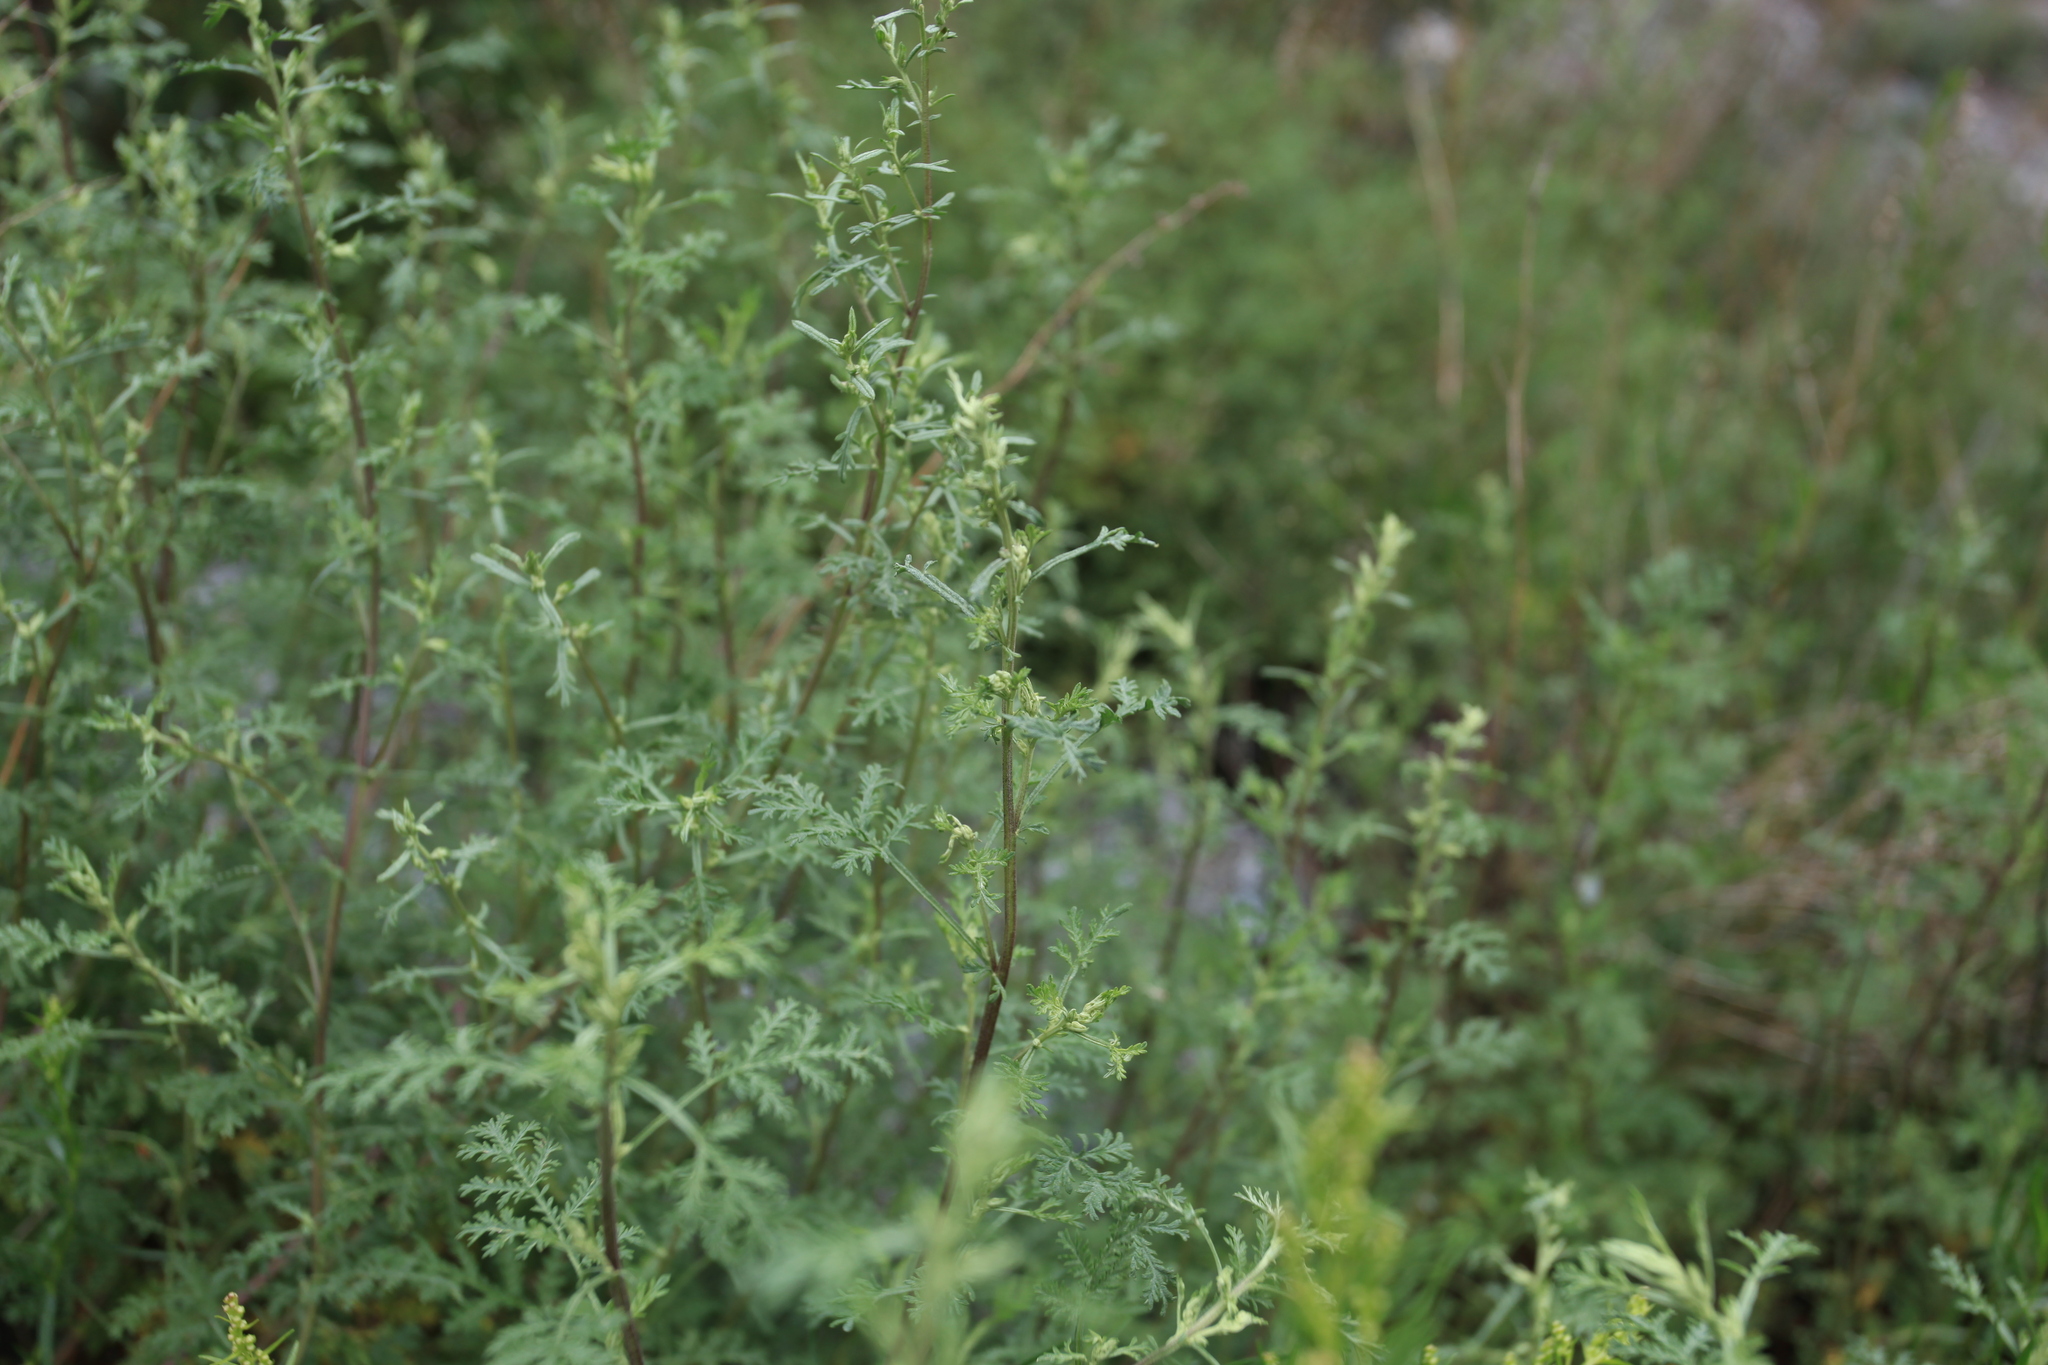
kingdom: Plantae
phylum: Tracheophyta
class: Magnoliopsida
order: Asterales
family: Asteraceae
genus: Artemisia
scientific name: Artemisia gmelinii
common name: Gmelin's wormwood
